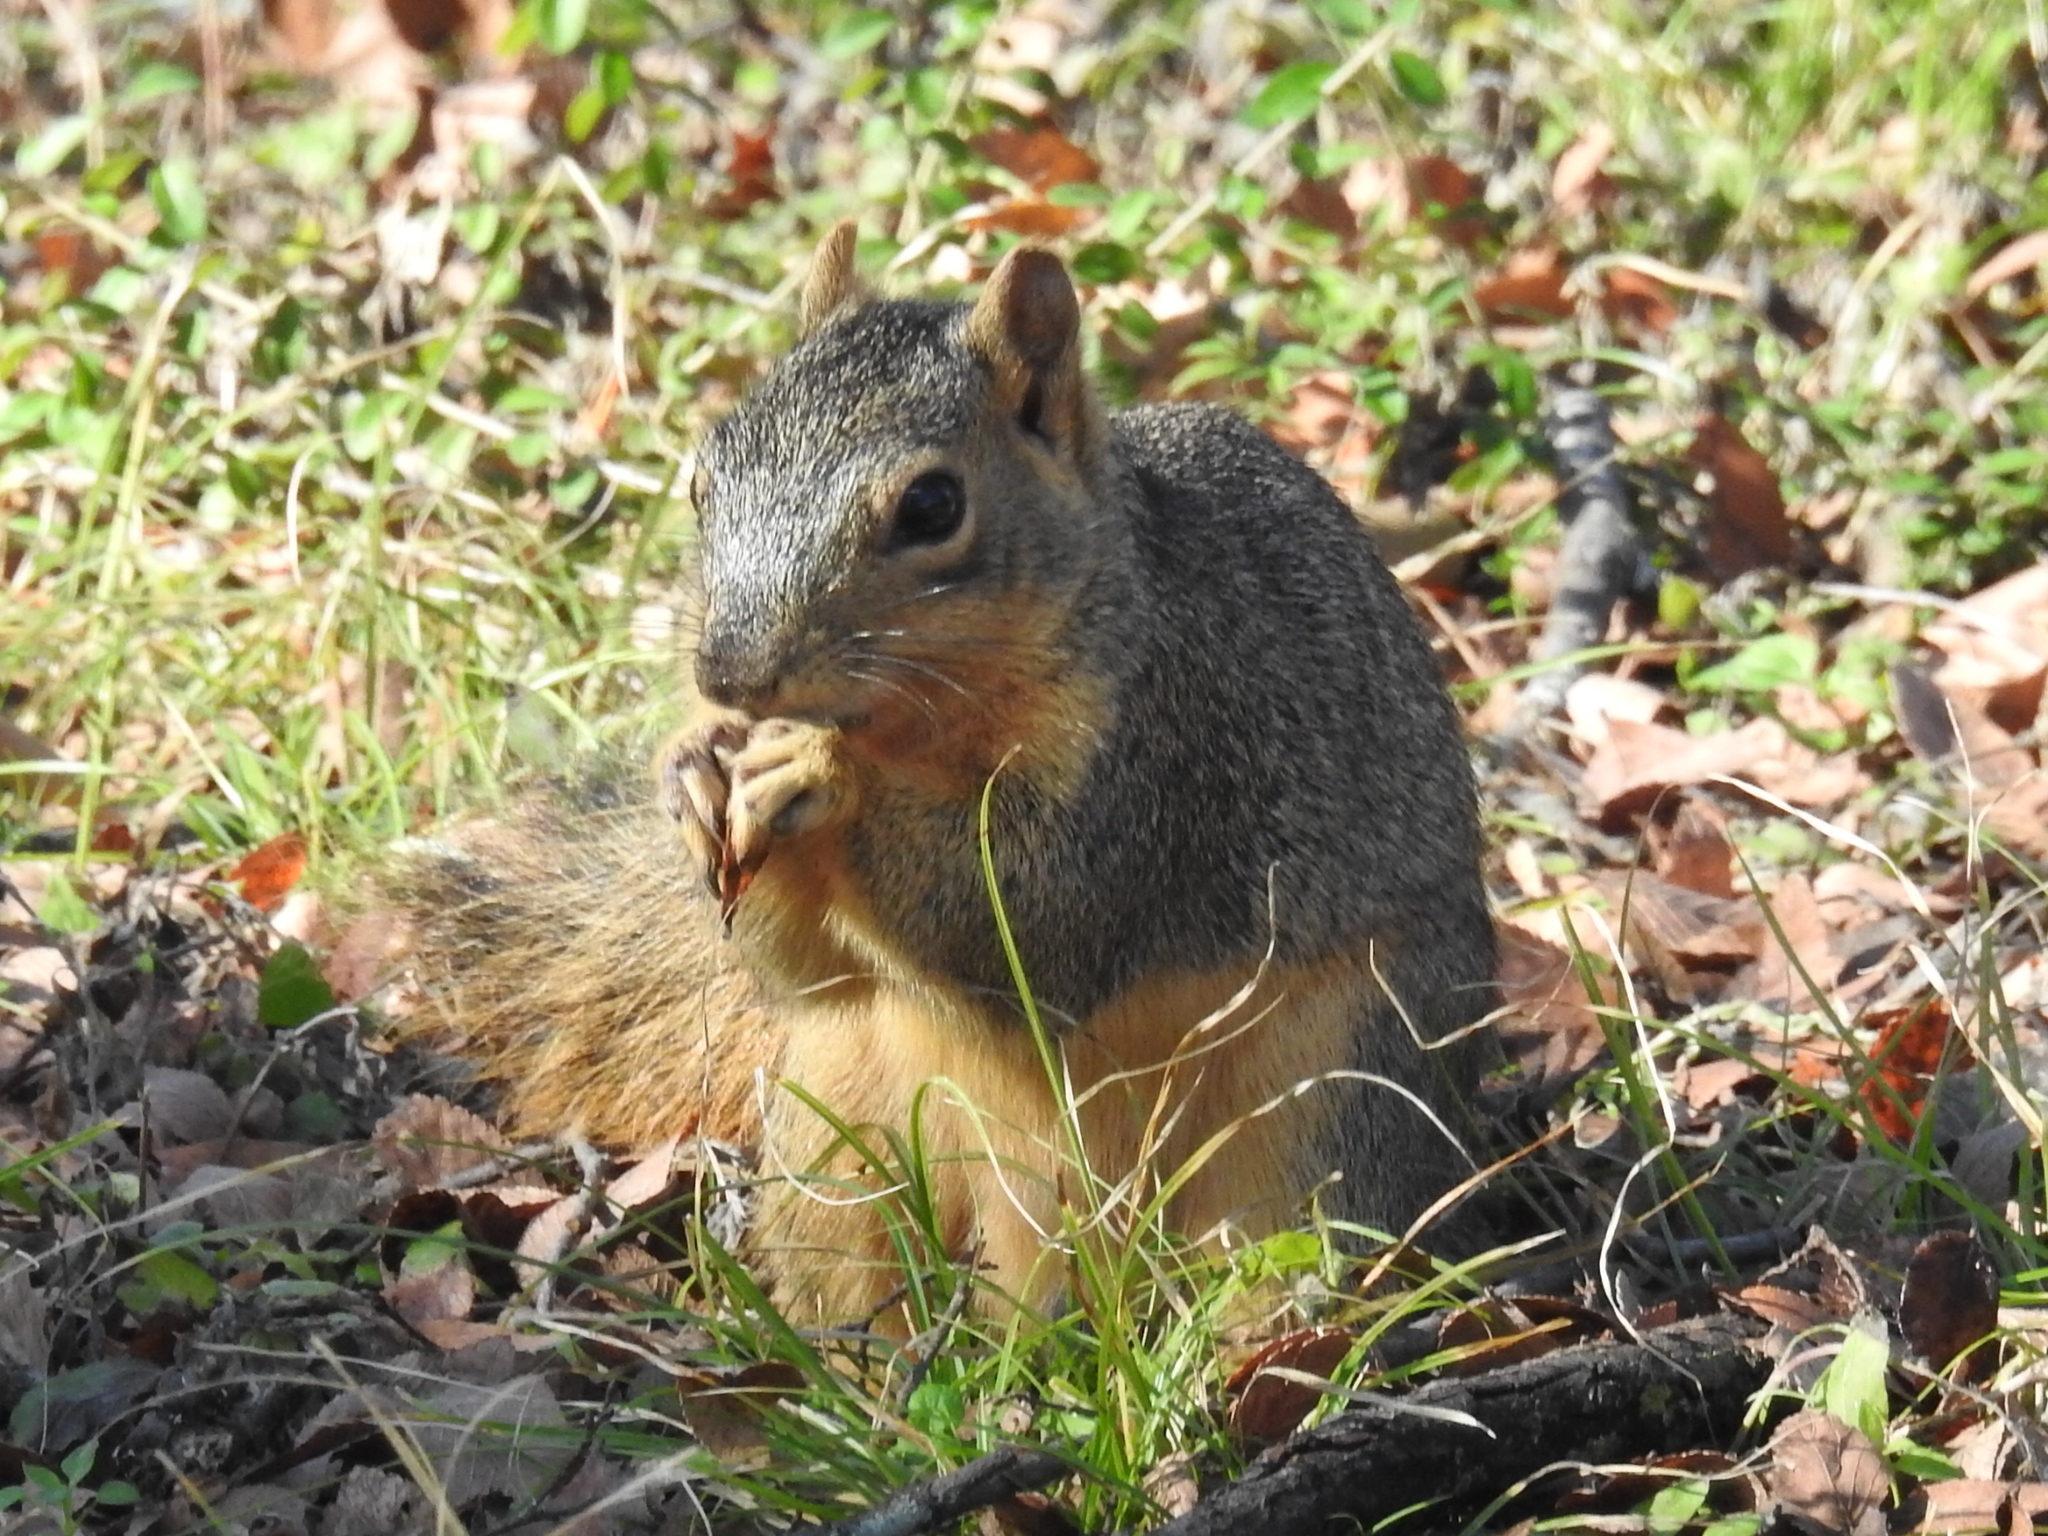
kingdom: Animalia
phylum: Chordata
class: Mammalia
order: Rodentia
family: Sciuridae
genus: Sciurus
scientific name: Sciurus niger
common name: Fox squirrel
